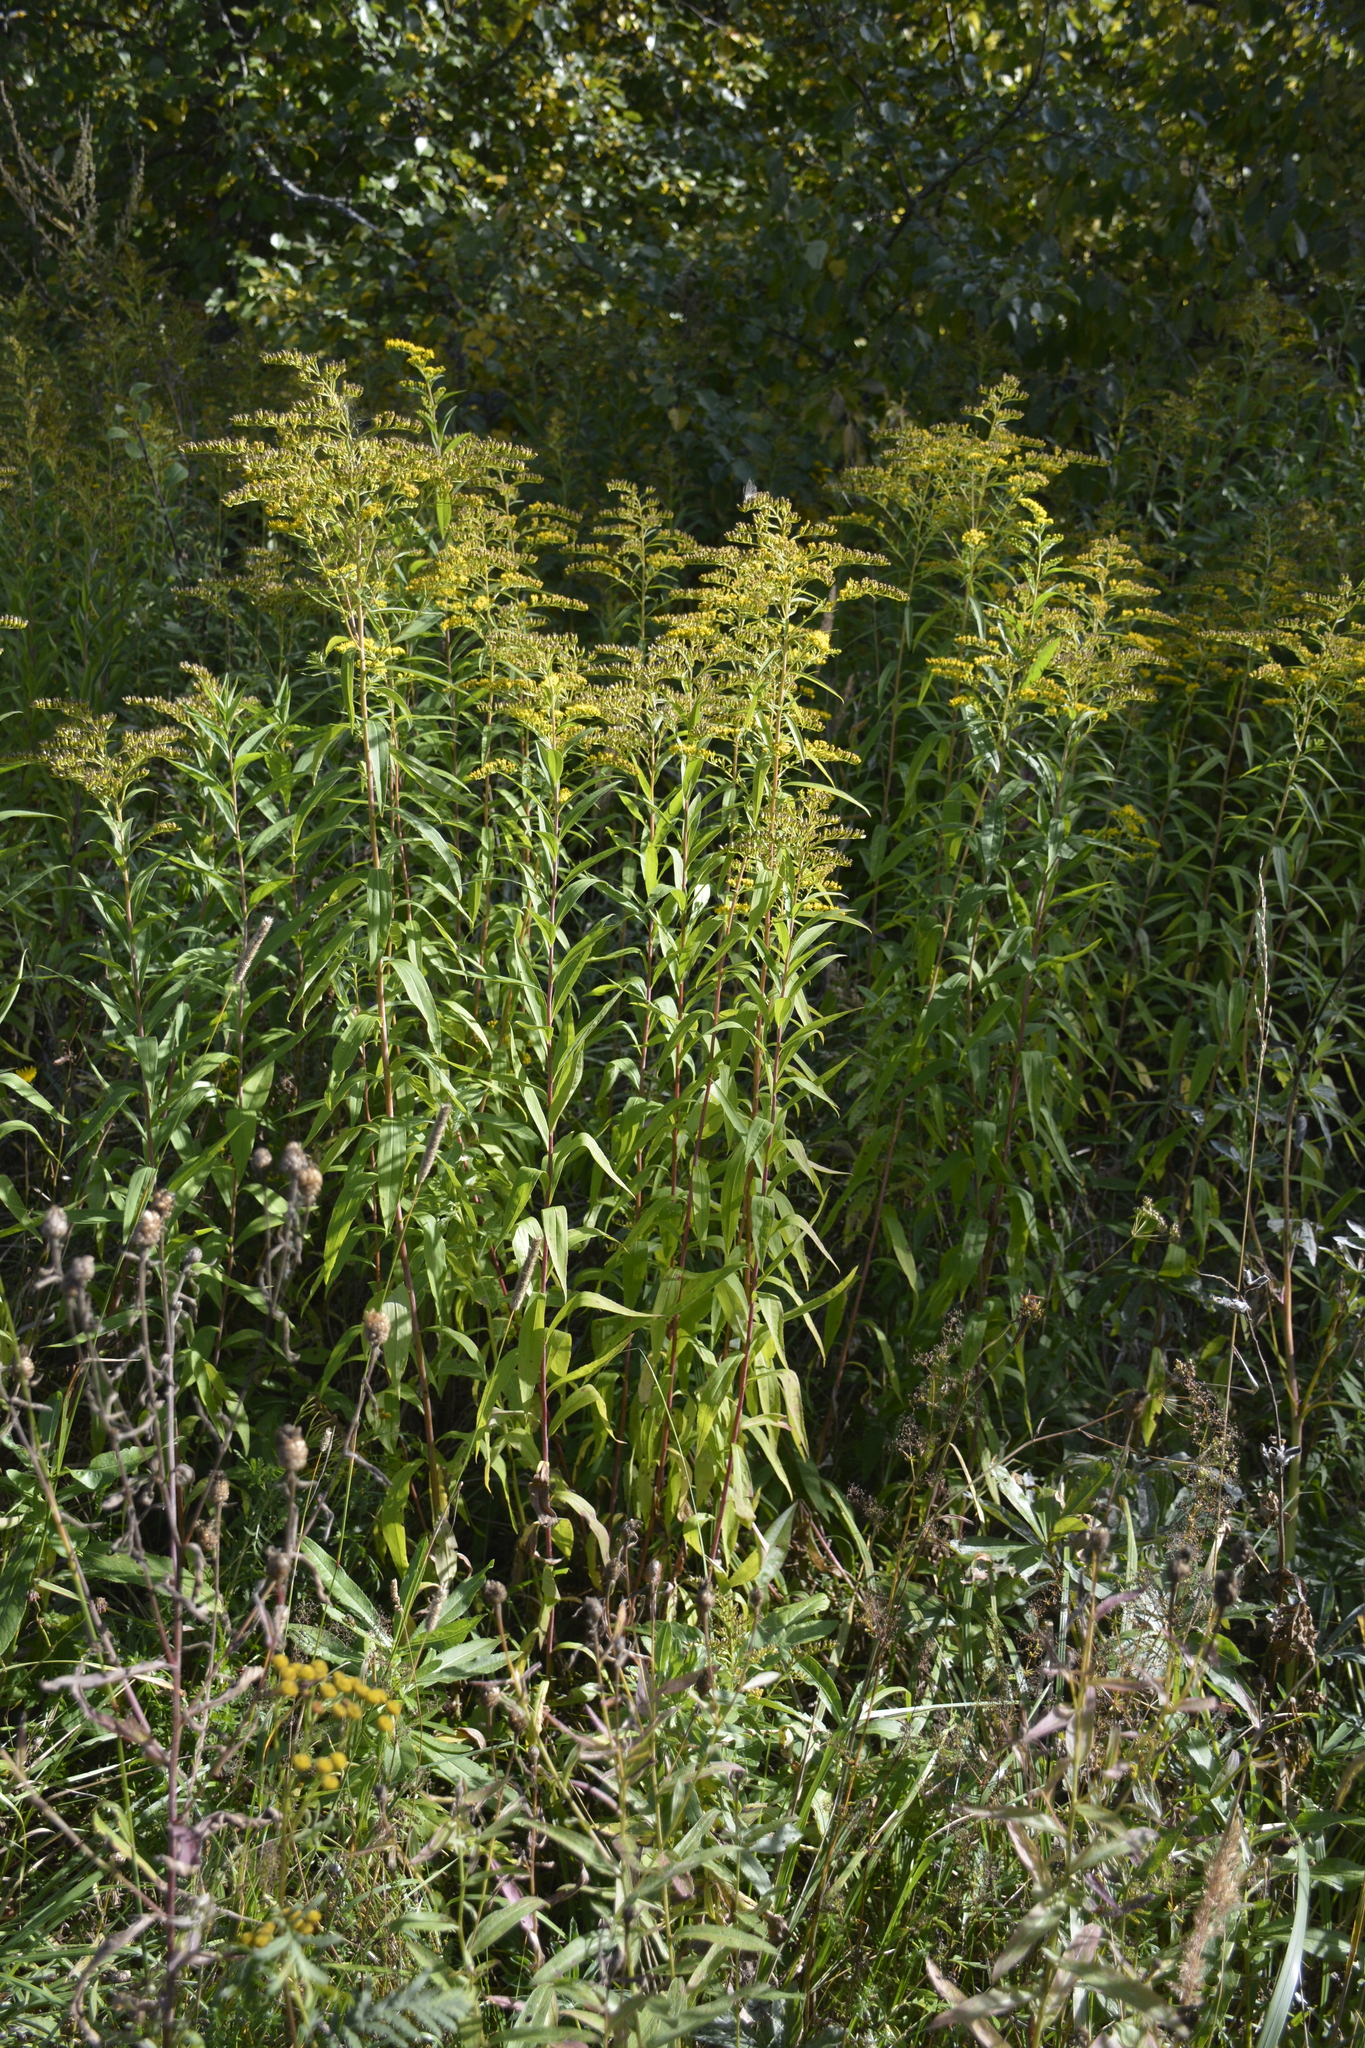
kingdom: Plantae
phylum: Tracheophyta
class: Magnoliopsida
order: Asterales
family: Asteraceae
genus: Solidago
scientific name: Solidago gigantea
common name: Giant goldenrod
